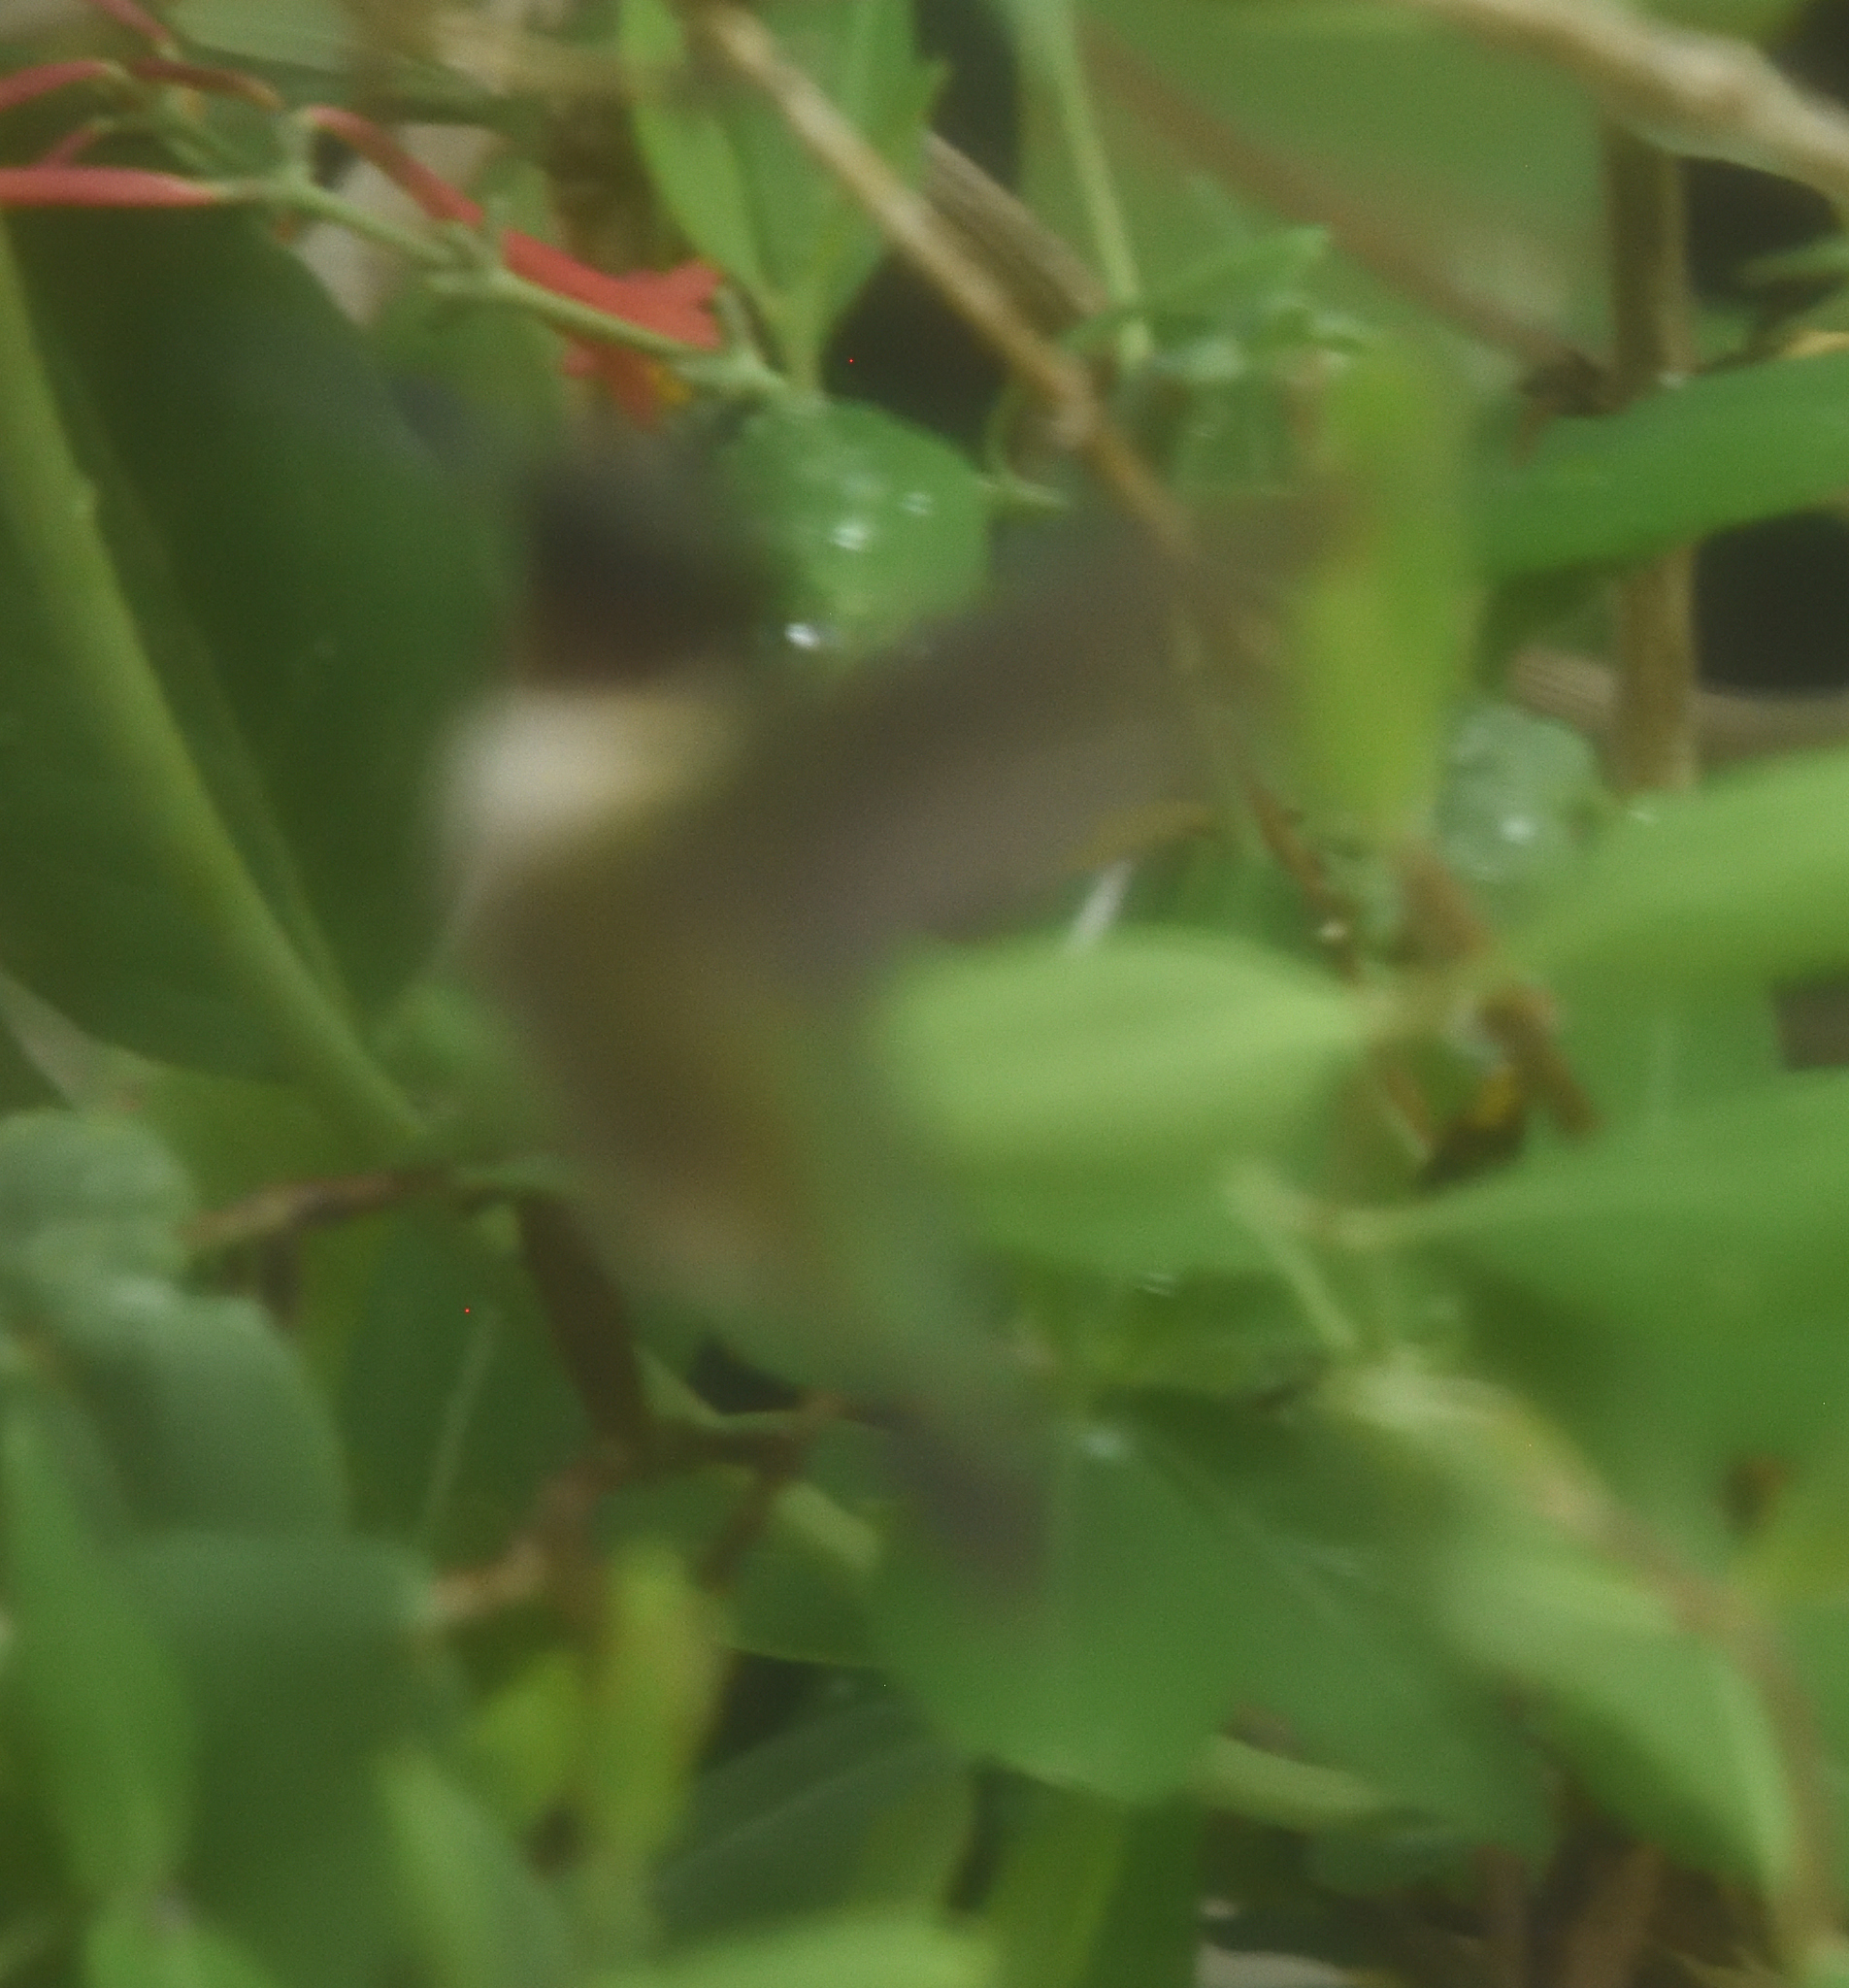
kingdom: Animalia
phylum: Chordata
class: Aves
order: Apodiformes
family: Trochilidae
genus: Archilochus
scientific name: Archilochus colubris
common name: Ruby-throated hummingbird
